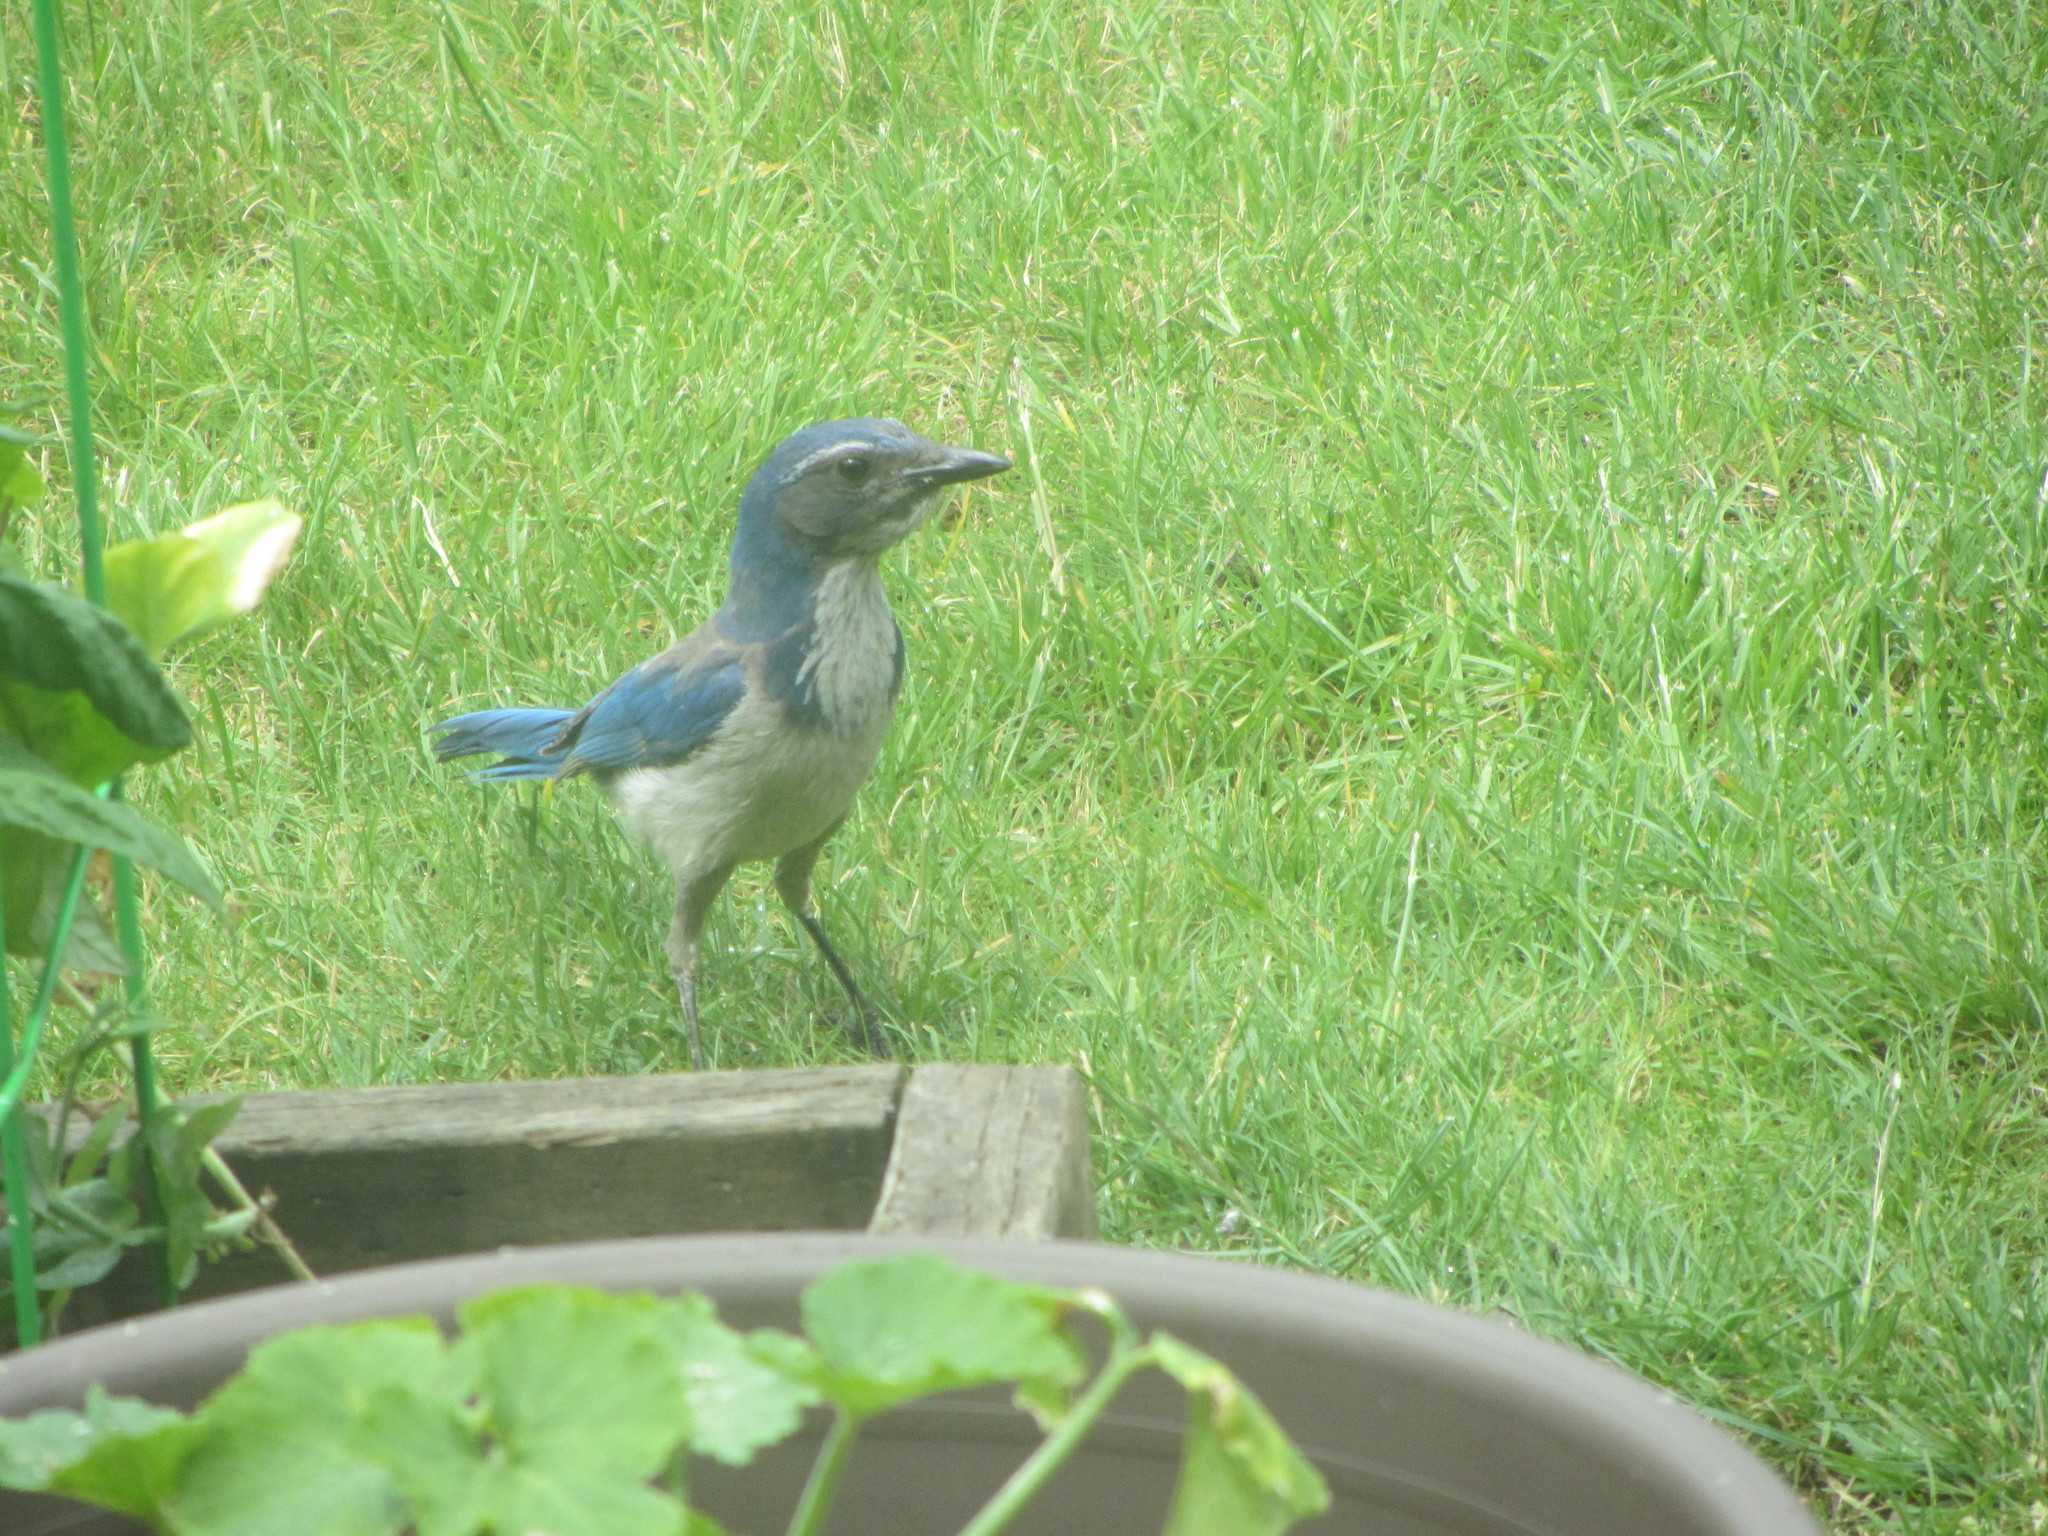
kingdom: Animalia
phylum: Chordata
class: Aves
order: Passeriformes
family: Corvidae
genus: Aphelocoma
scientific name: Aphelocoma californica
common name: California scrub-jay
